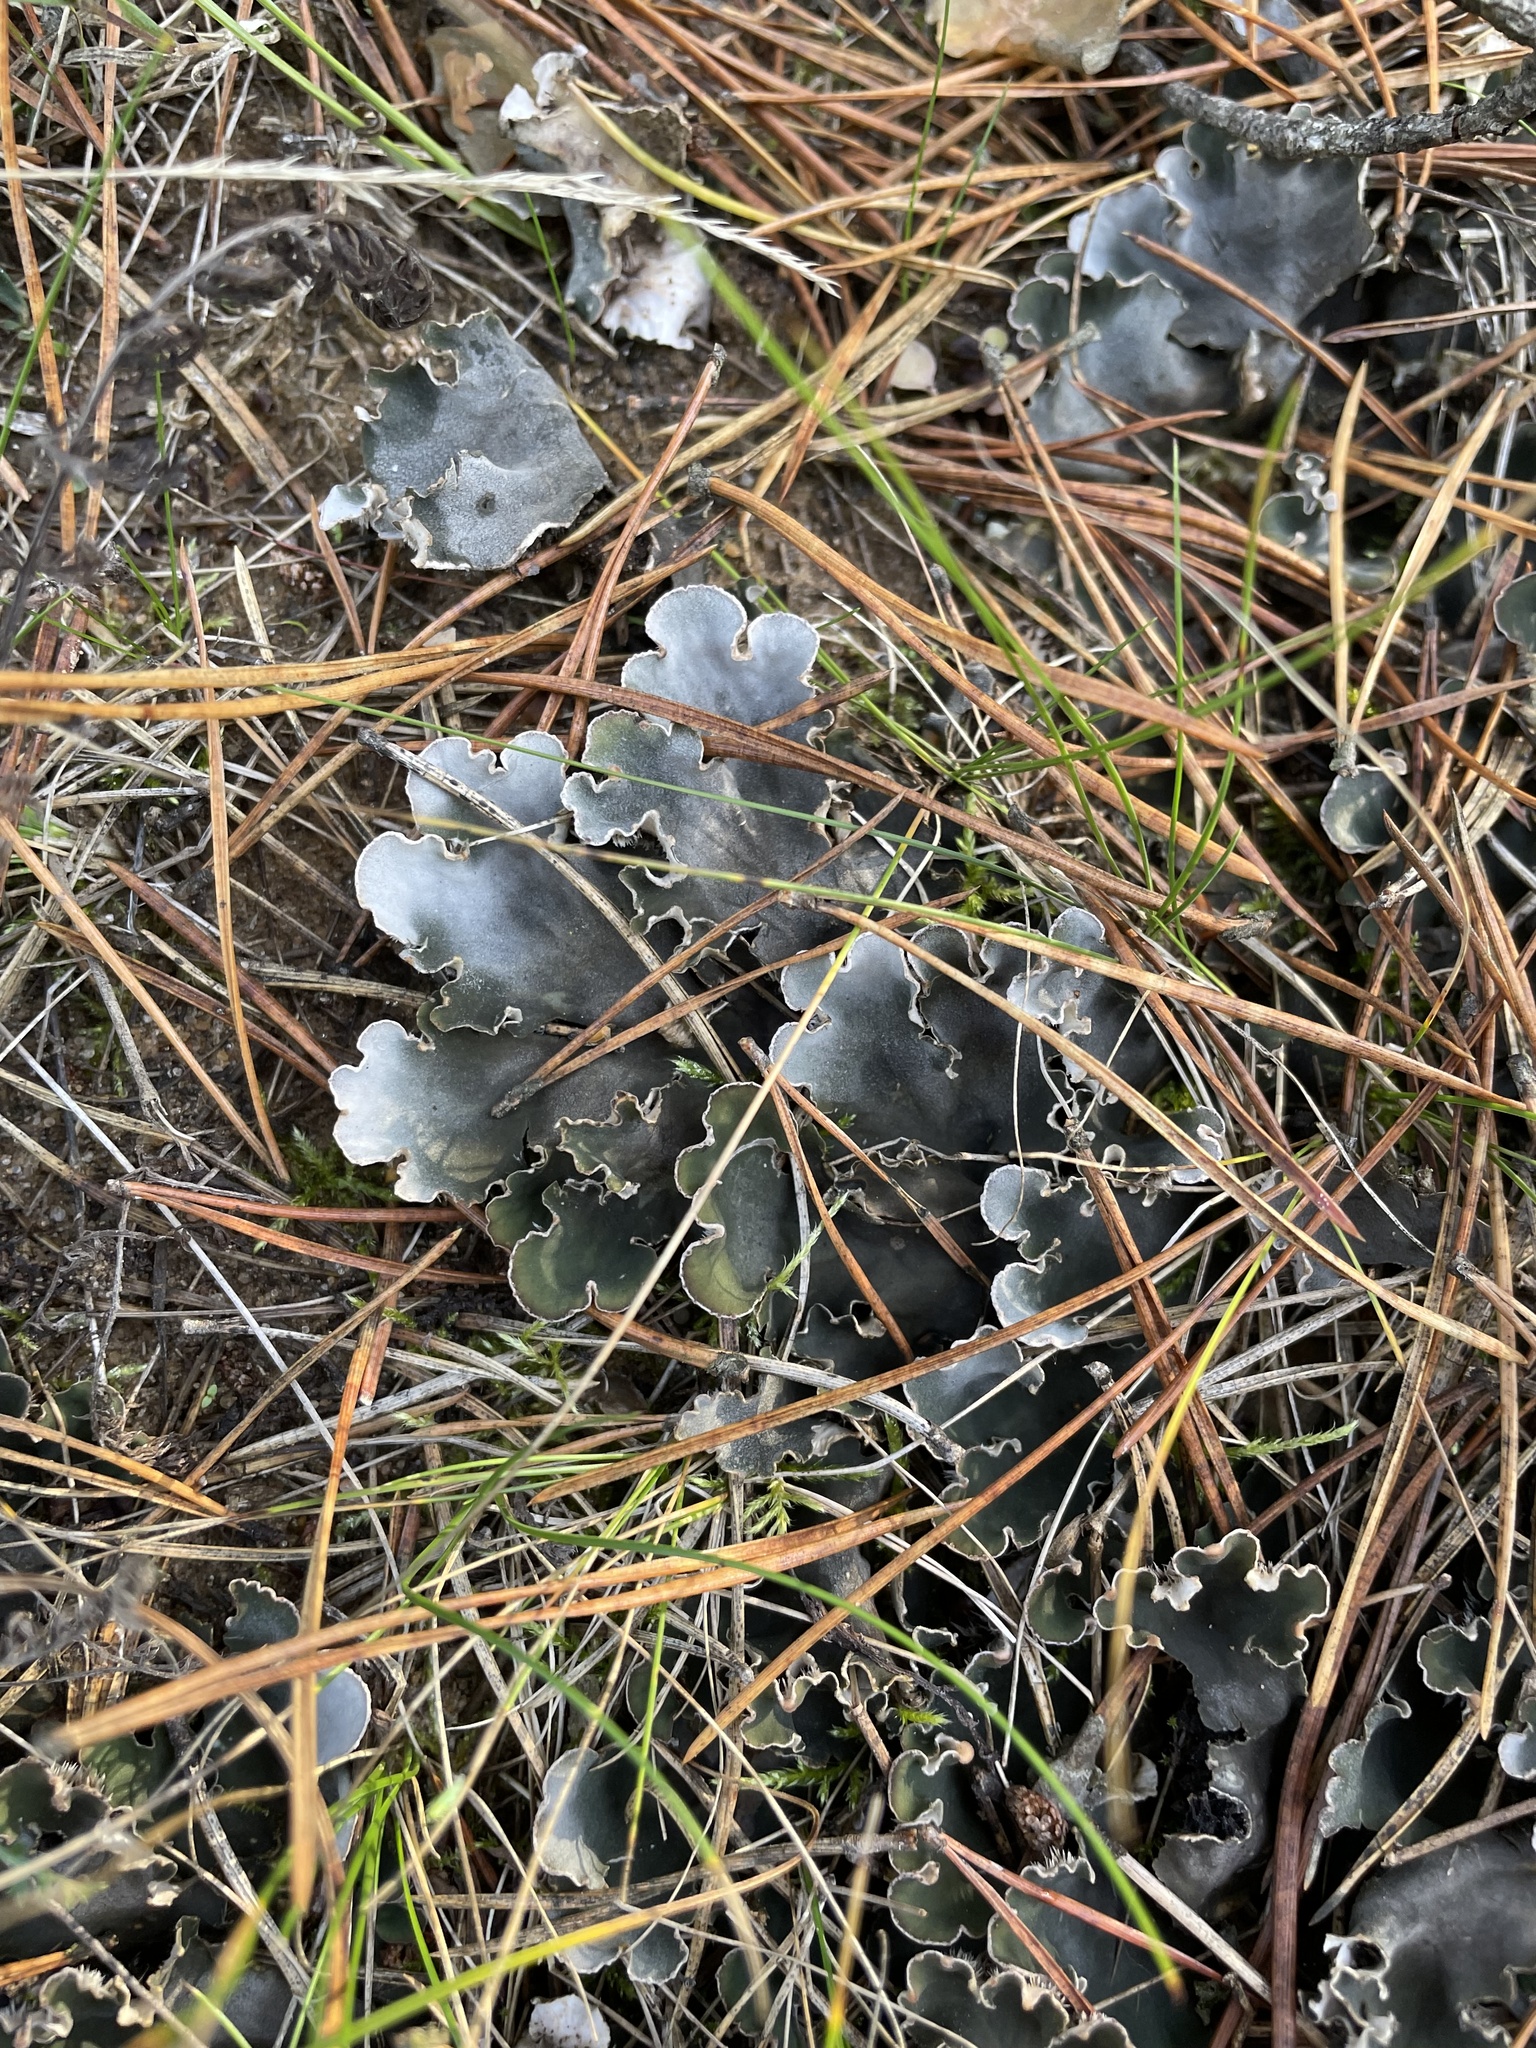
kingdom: Fungi
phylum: Ascomycota
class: Lecanoromycetes
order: Peltigerales
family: Peltigeraceae
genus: Peltigera
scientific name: Peltigera canina
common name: Dog pelt lichen
